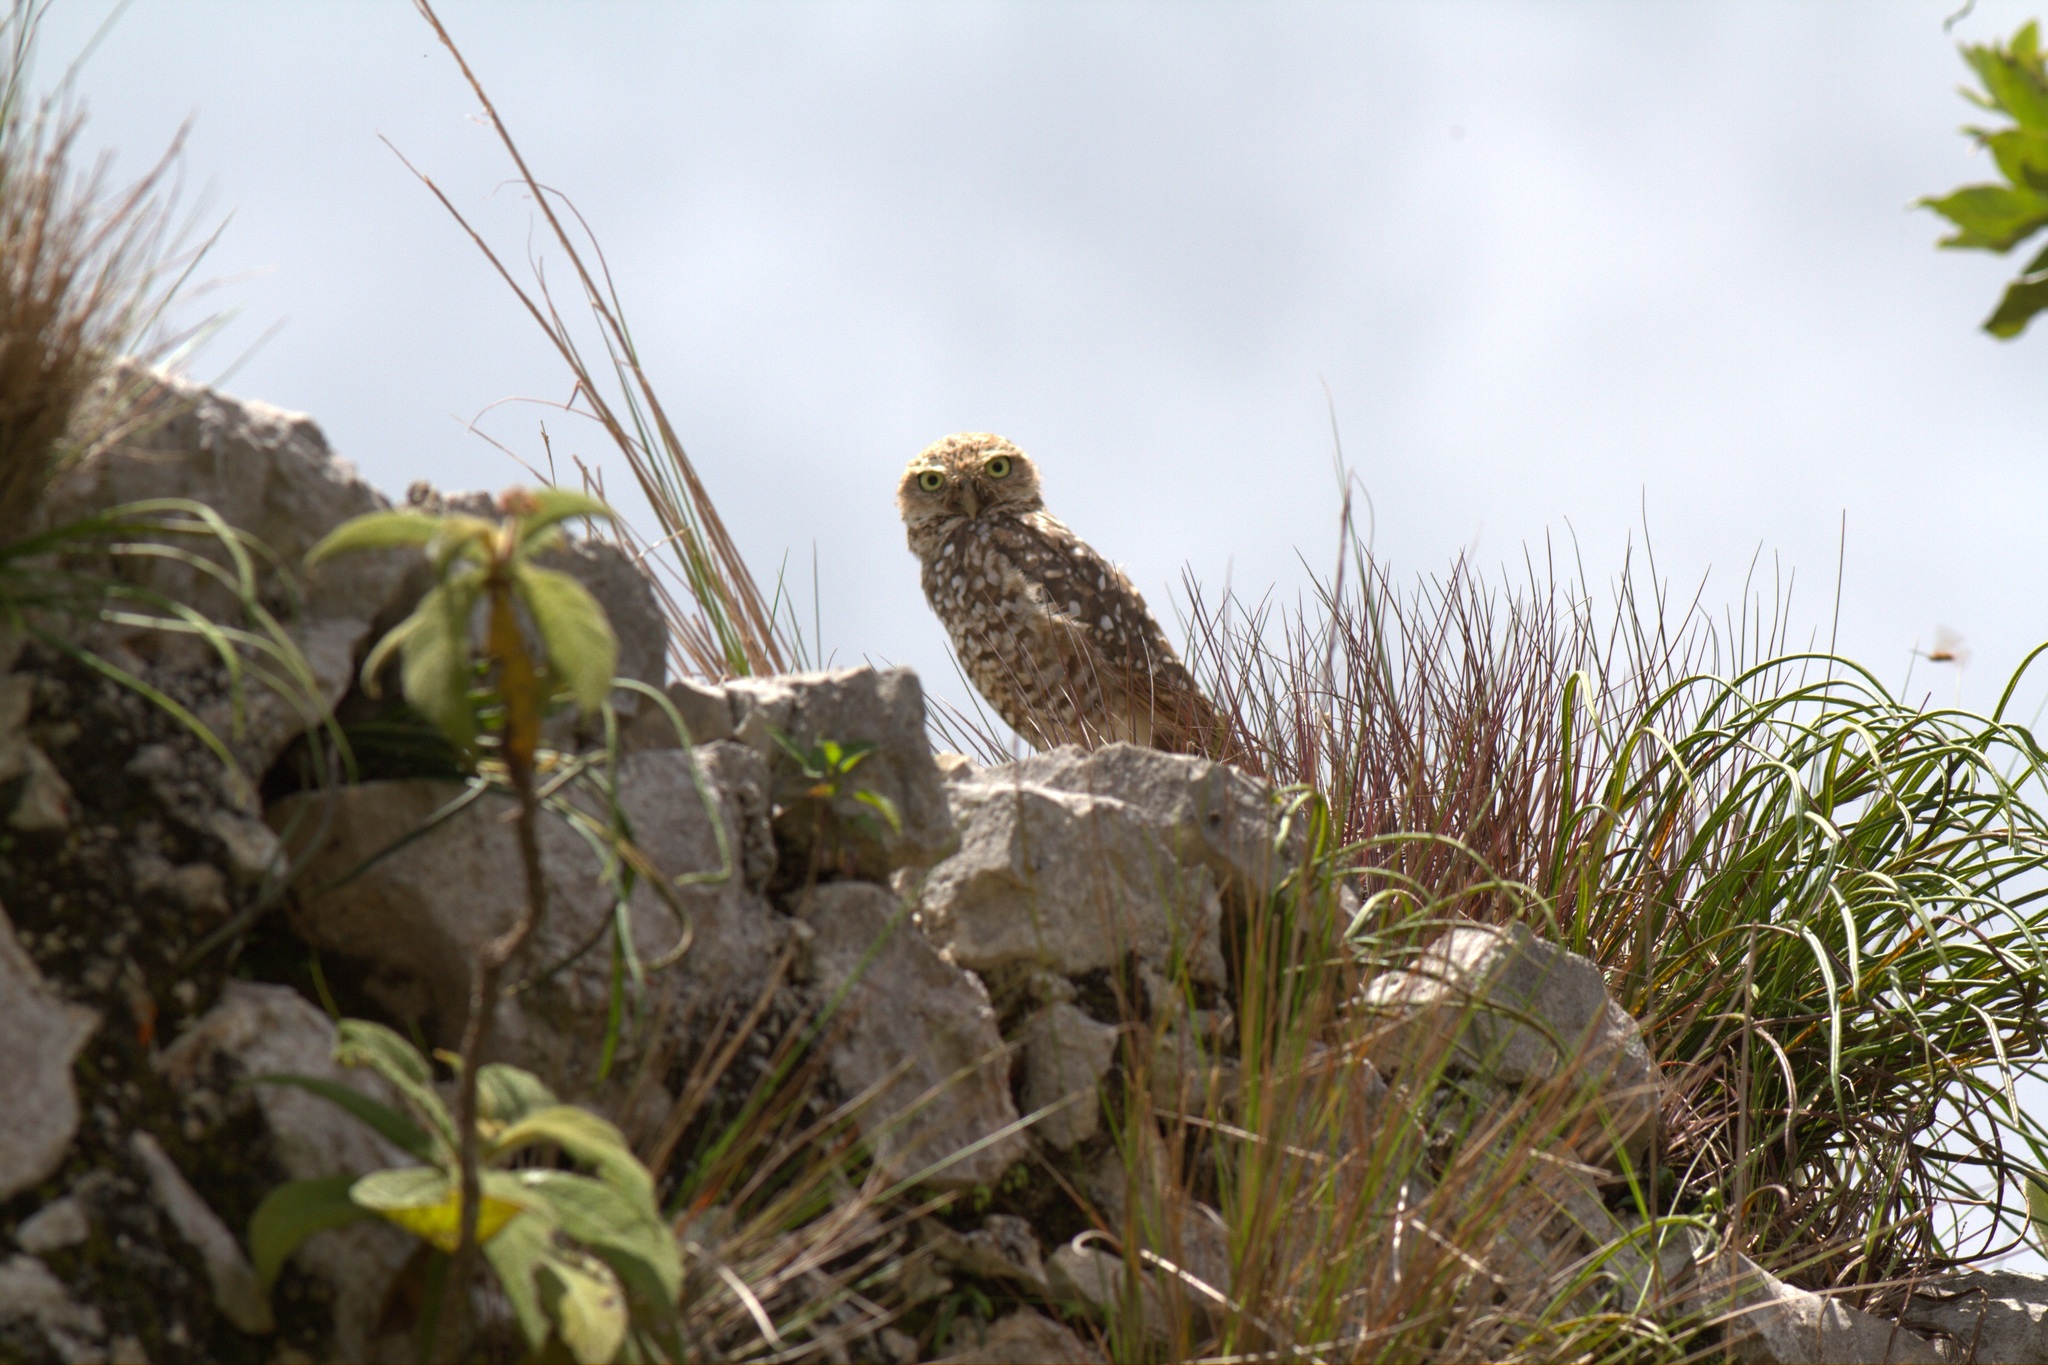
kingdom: Animalia
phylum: Chordata
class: Aves
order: Strigiformes
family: Strigidae
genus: Athene
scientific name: Athene cunicularia
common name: Burrowing owl
